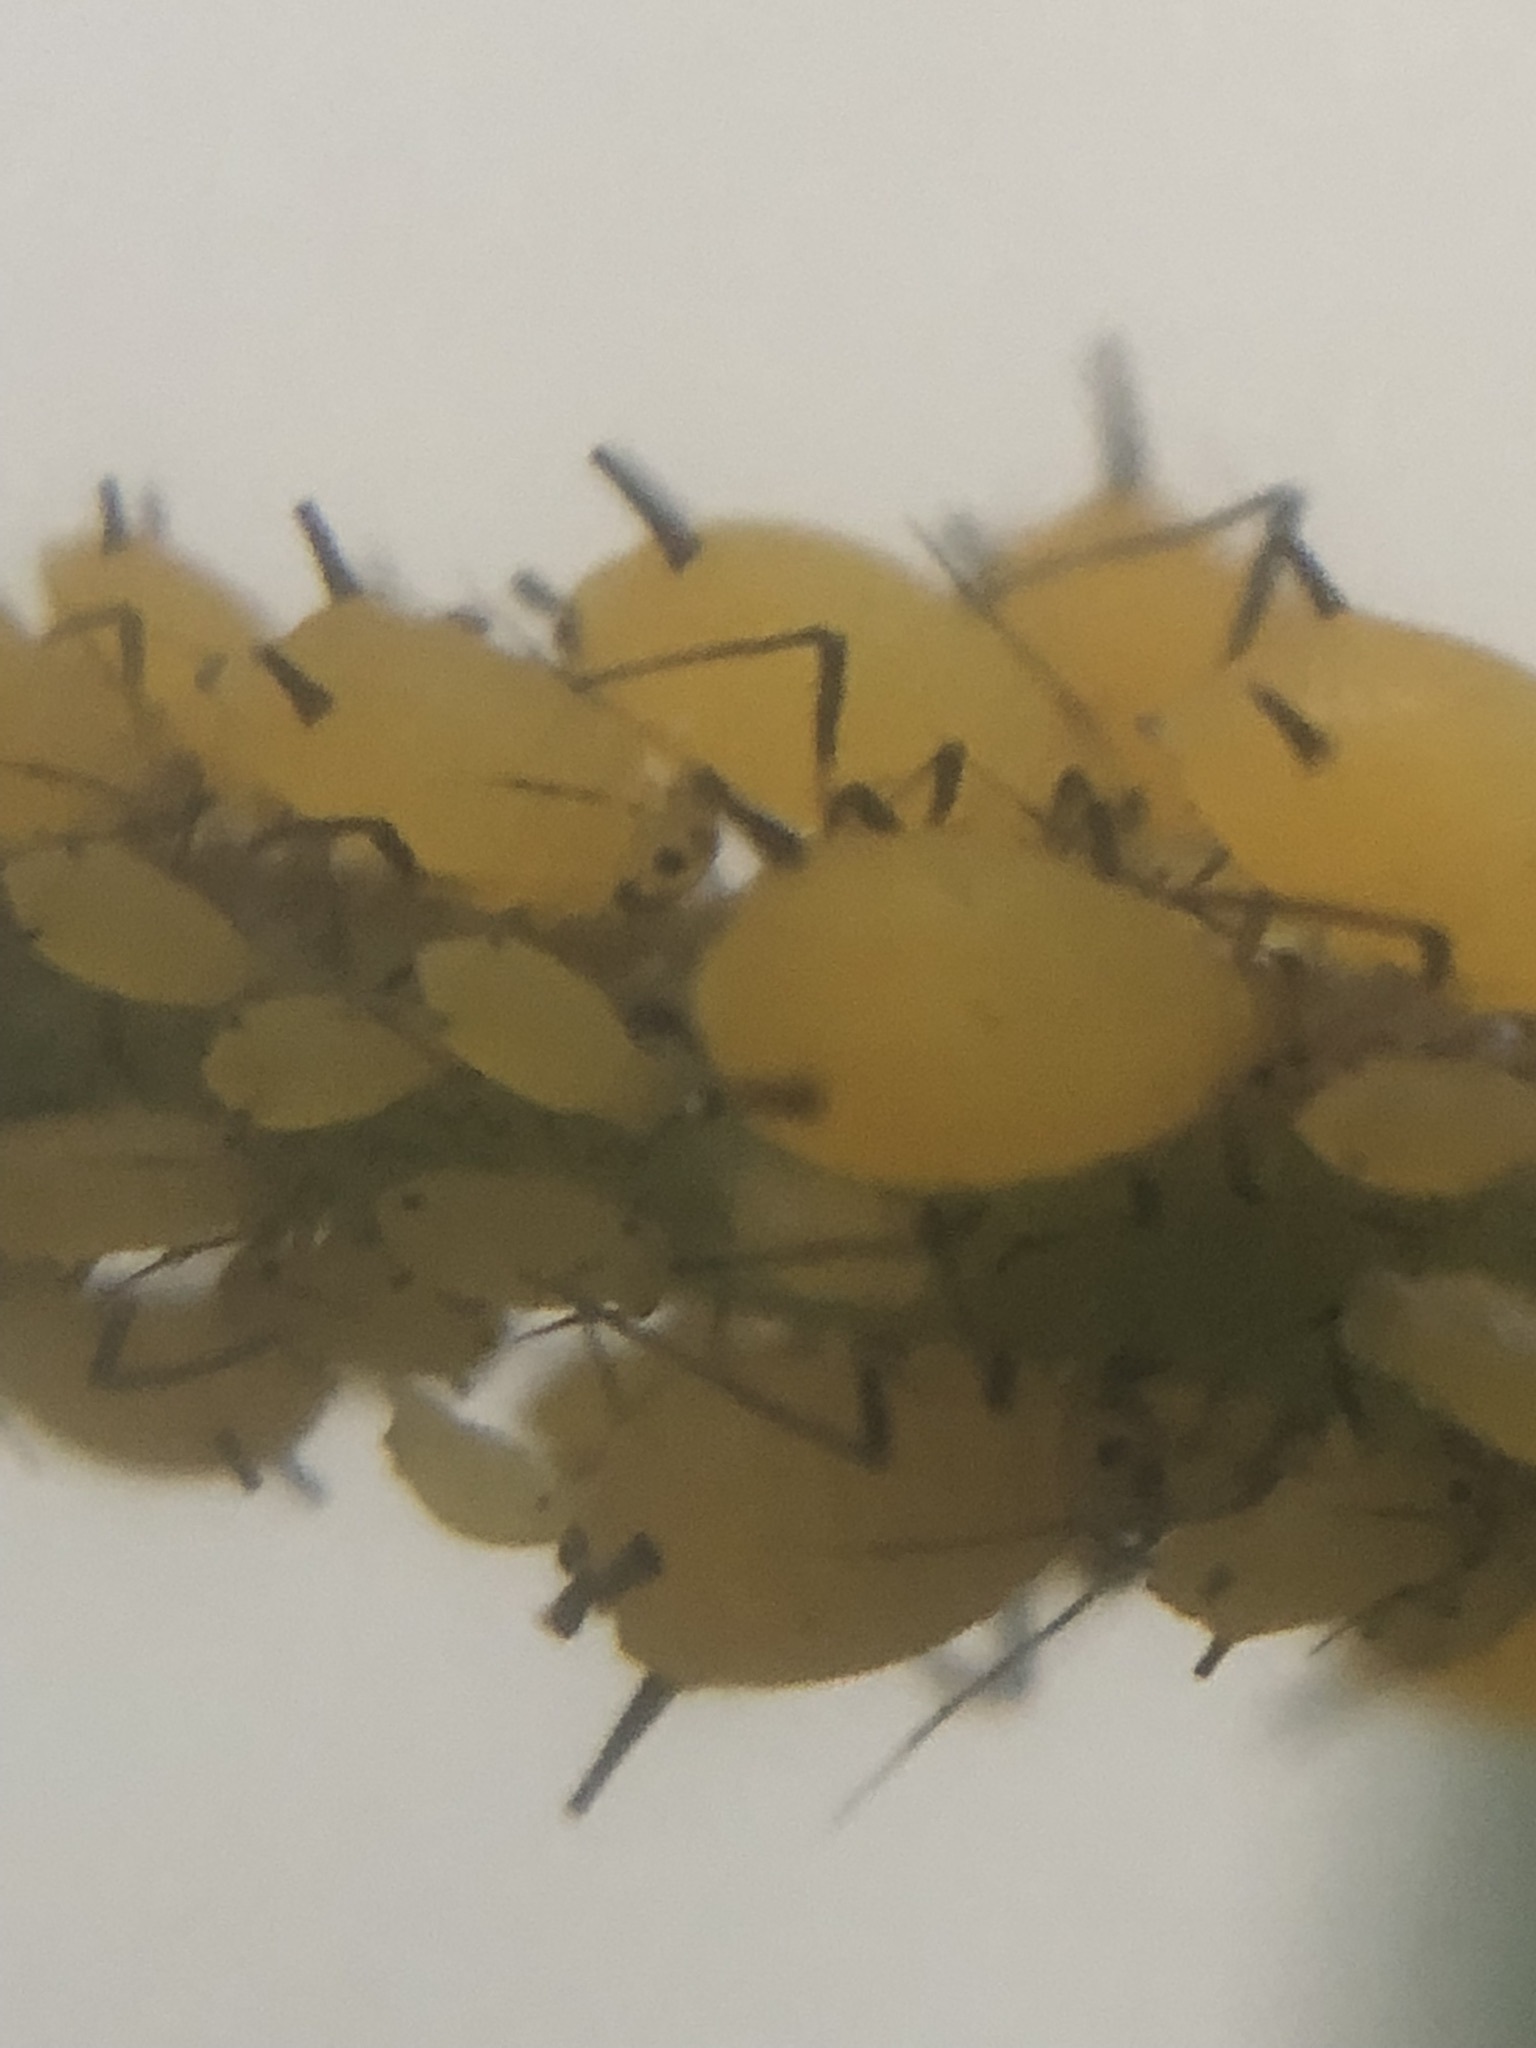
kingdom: Animalia
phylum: Arthropoda
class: Insecta
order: Hemiptera
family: Aphididae
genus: Aphis
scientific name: Aphis nerii
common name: Oleander aphid
